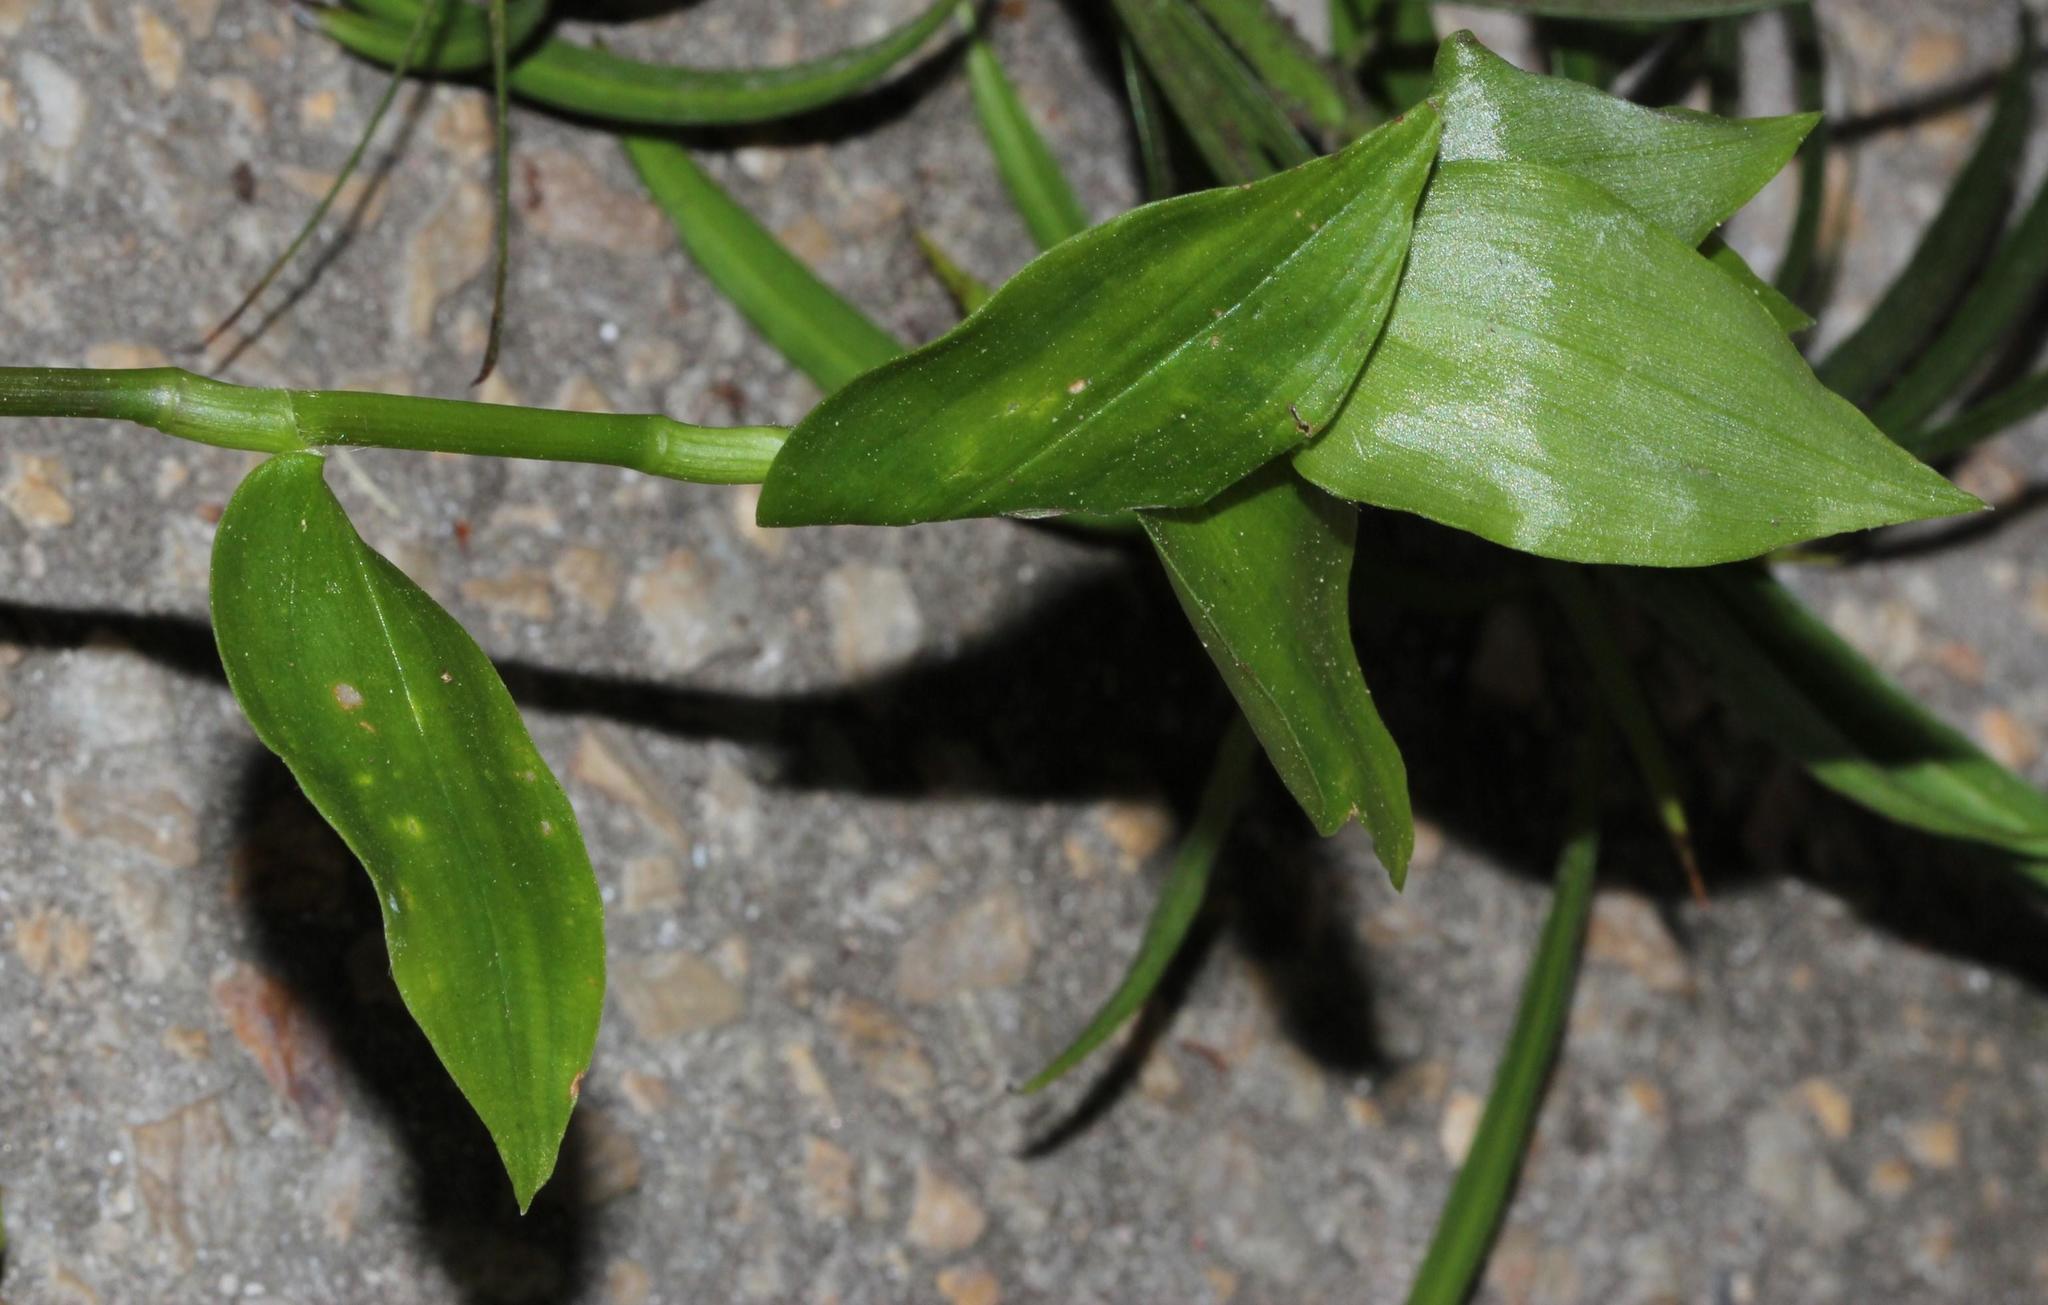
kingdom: Plantae
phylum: Tracheophyta
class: Liliopsida
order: Commelinales
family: Commelinaceae
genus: Tradescantia
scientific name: Tradescantia fluminensis
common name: Wandering-jew
